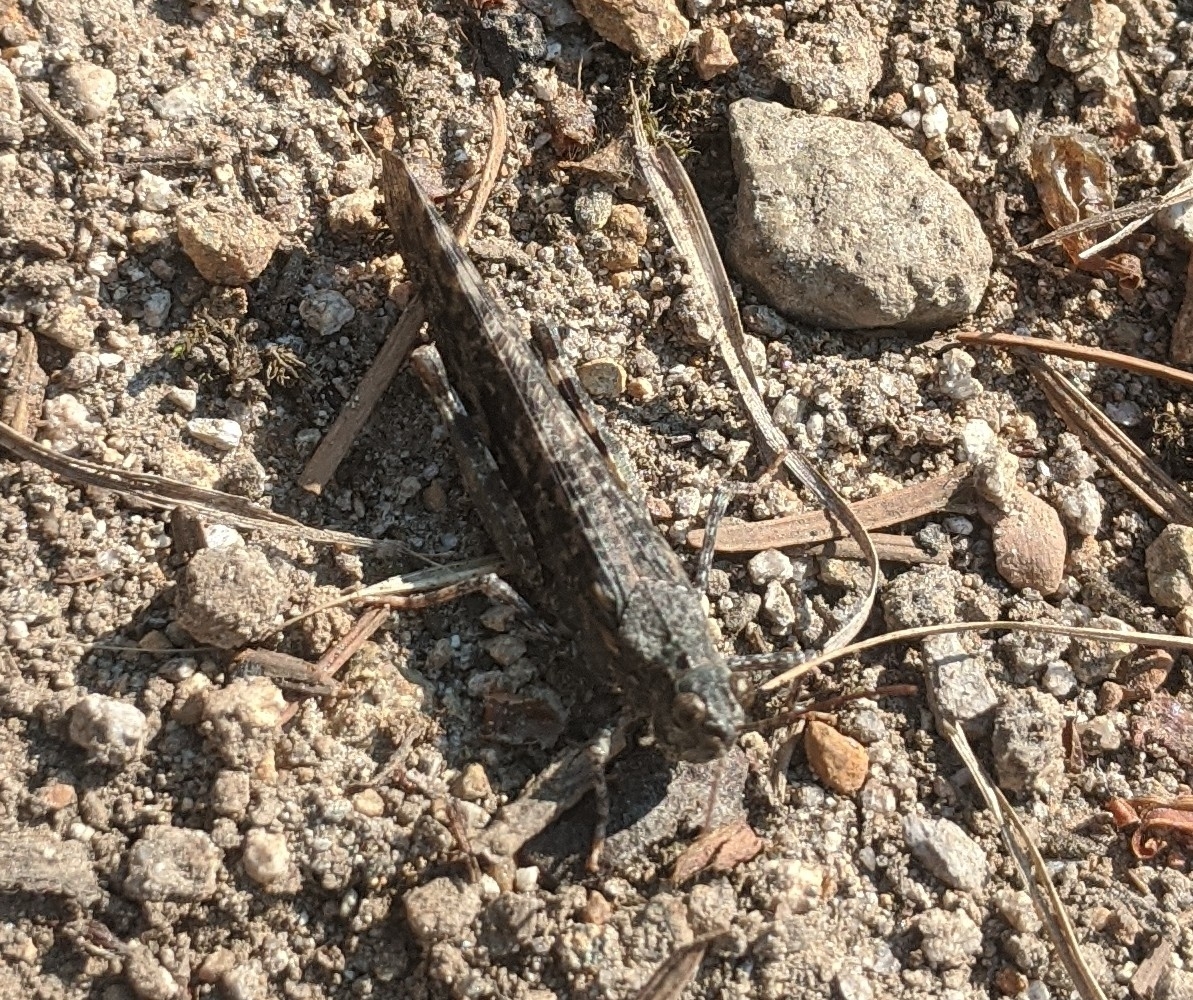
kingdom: Animalia
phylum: Arthropoda
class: Insecta
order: Orthoptera
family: Acrididae
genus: Trimerotropis
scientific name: Trimerotropis verruculata
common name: Crackling forest grasshopper
